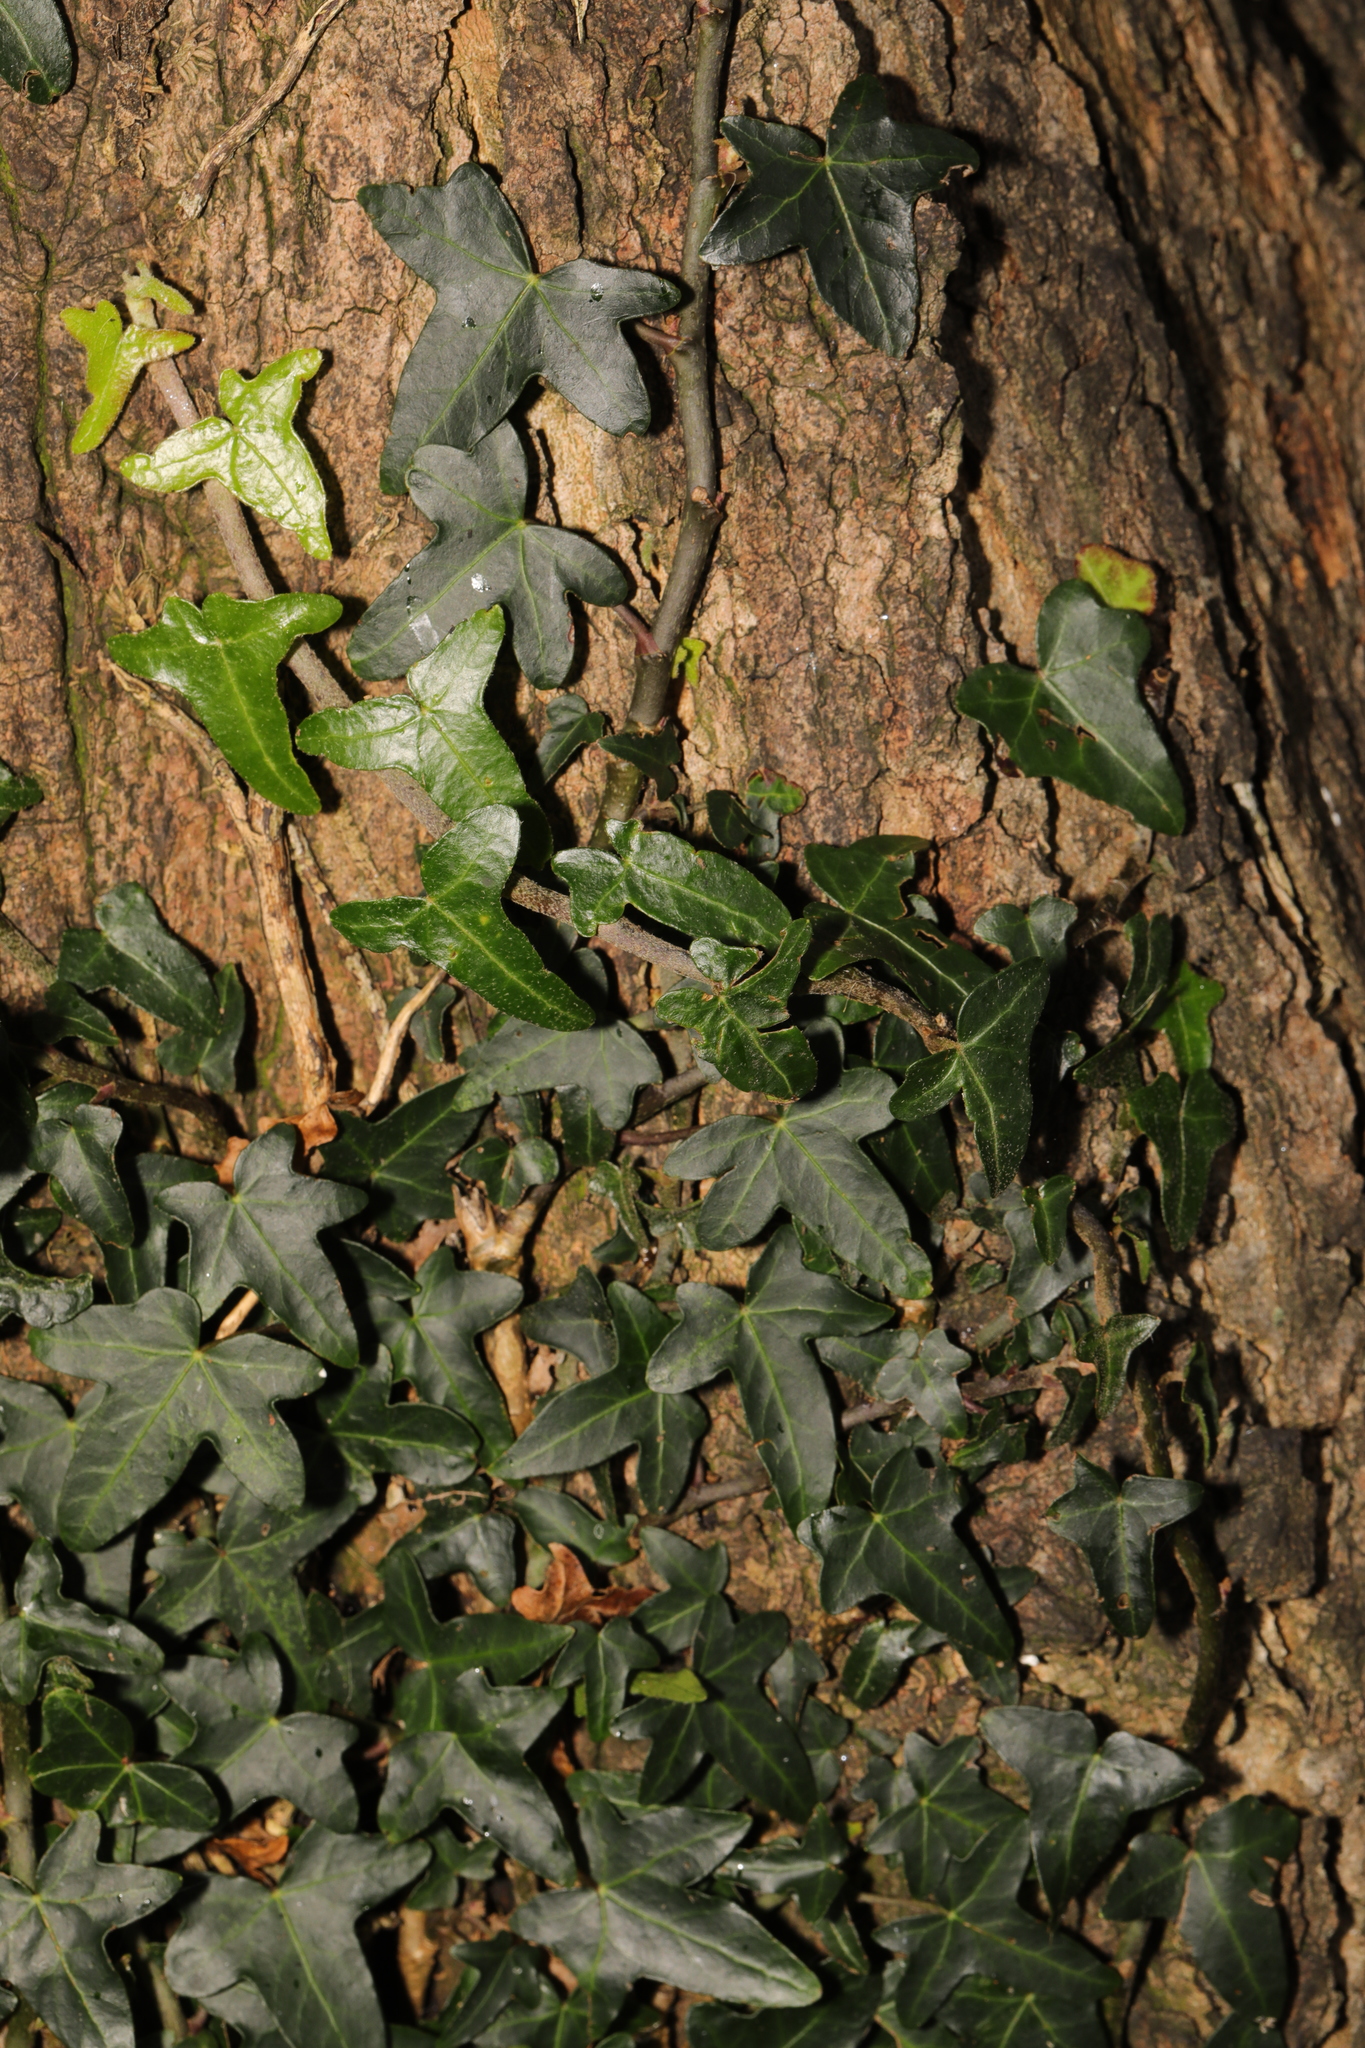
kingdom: Plantae
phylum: Tracheophyta
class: Magnoliopsida
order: Apiales
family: Araliaceae
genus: Hedera
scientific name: Hedera helix
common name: Ivy
